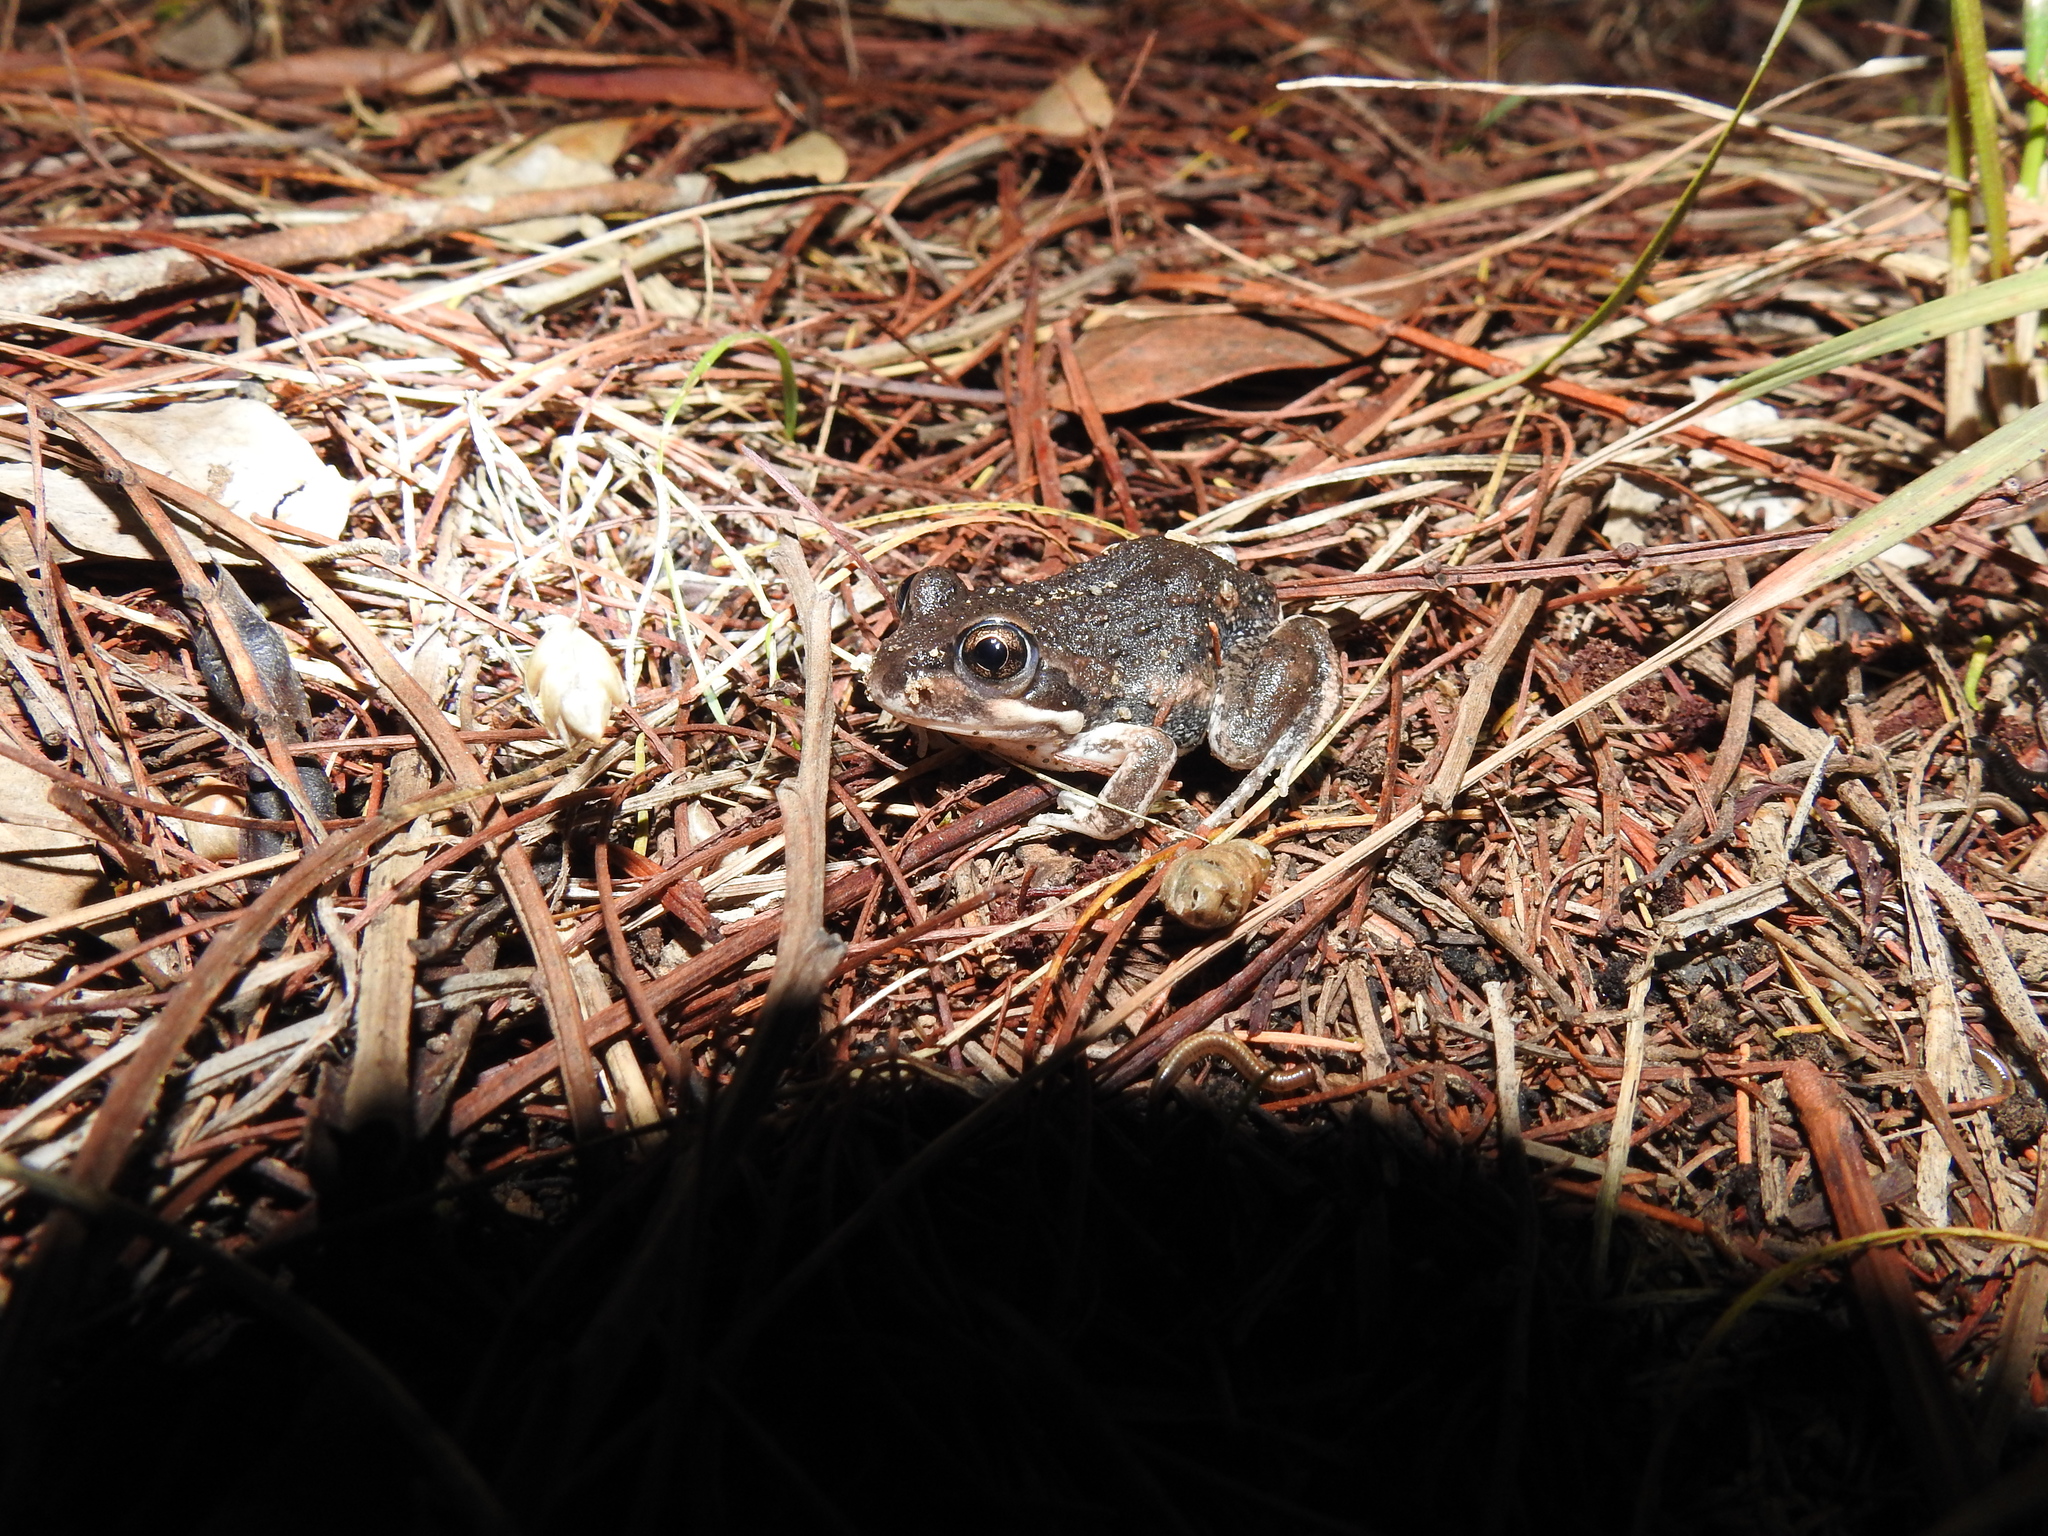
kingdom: Animalia
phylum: Chordata
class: Amphibia
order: Anura
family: Limnodynastidae
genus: Limnodynastes
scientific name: Limnodynastes dumerilii
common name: Banjo frog
